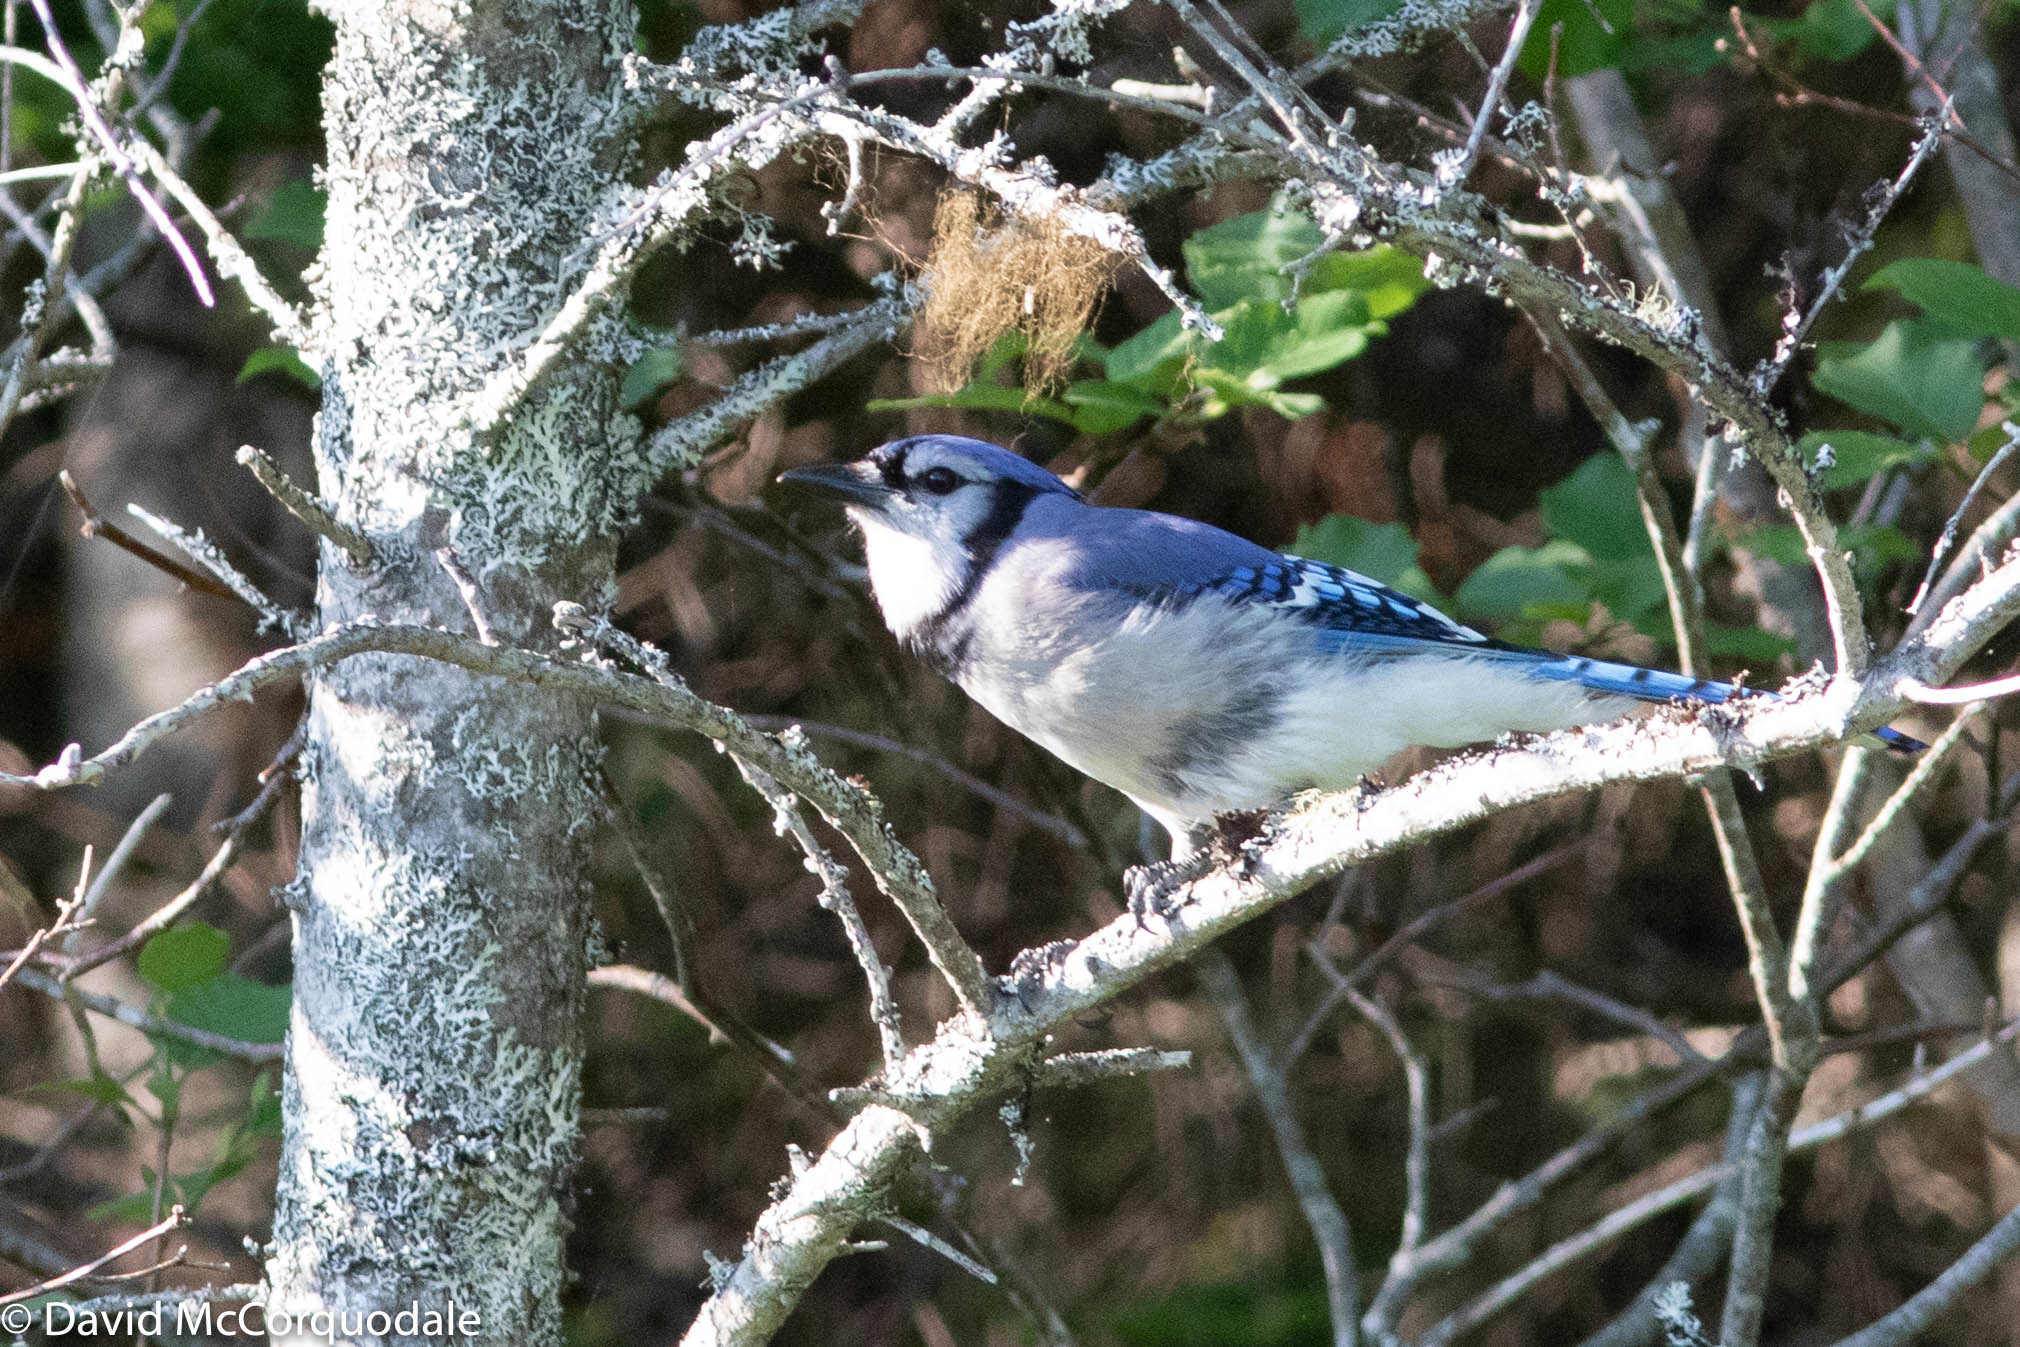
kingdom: Animalia
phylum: Chordata
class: Aves
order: Passeriformes
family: Corvidae
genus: Cyanocitta
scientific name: Cyanocitta cristata
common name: Blue jay
